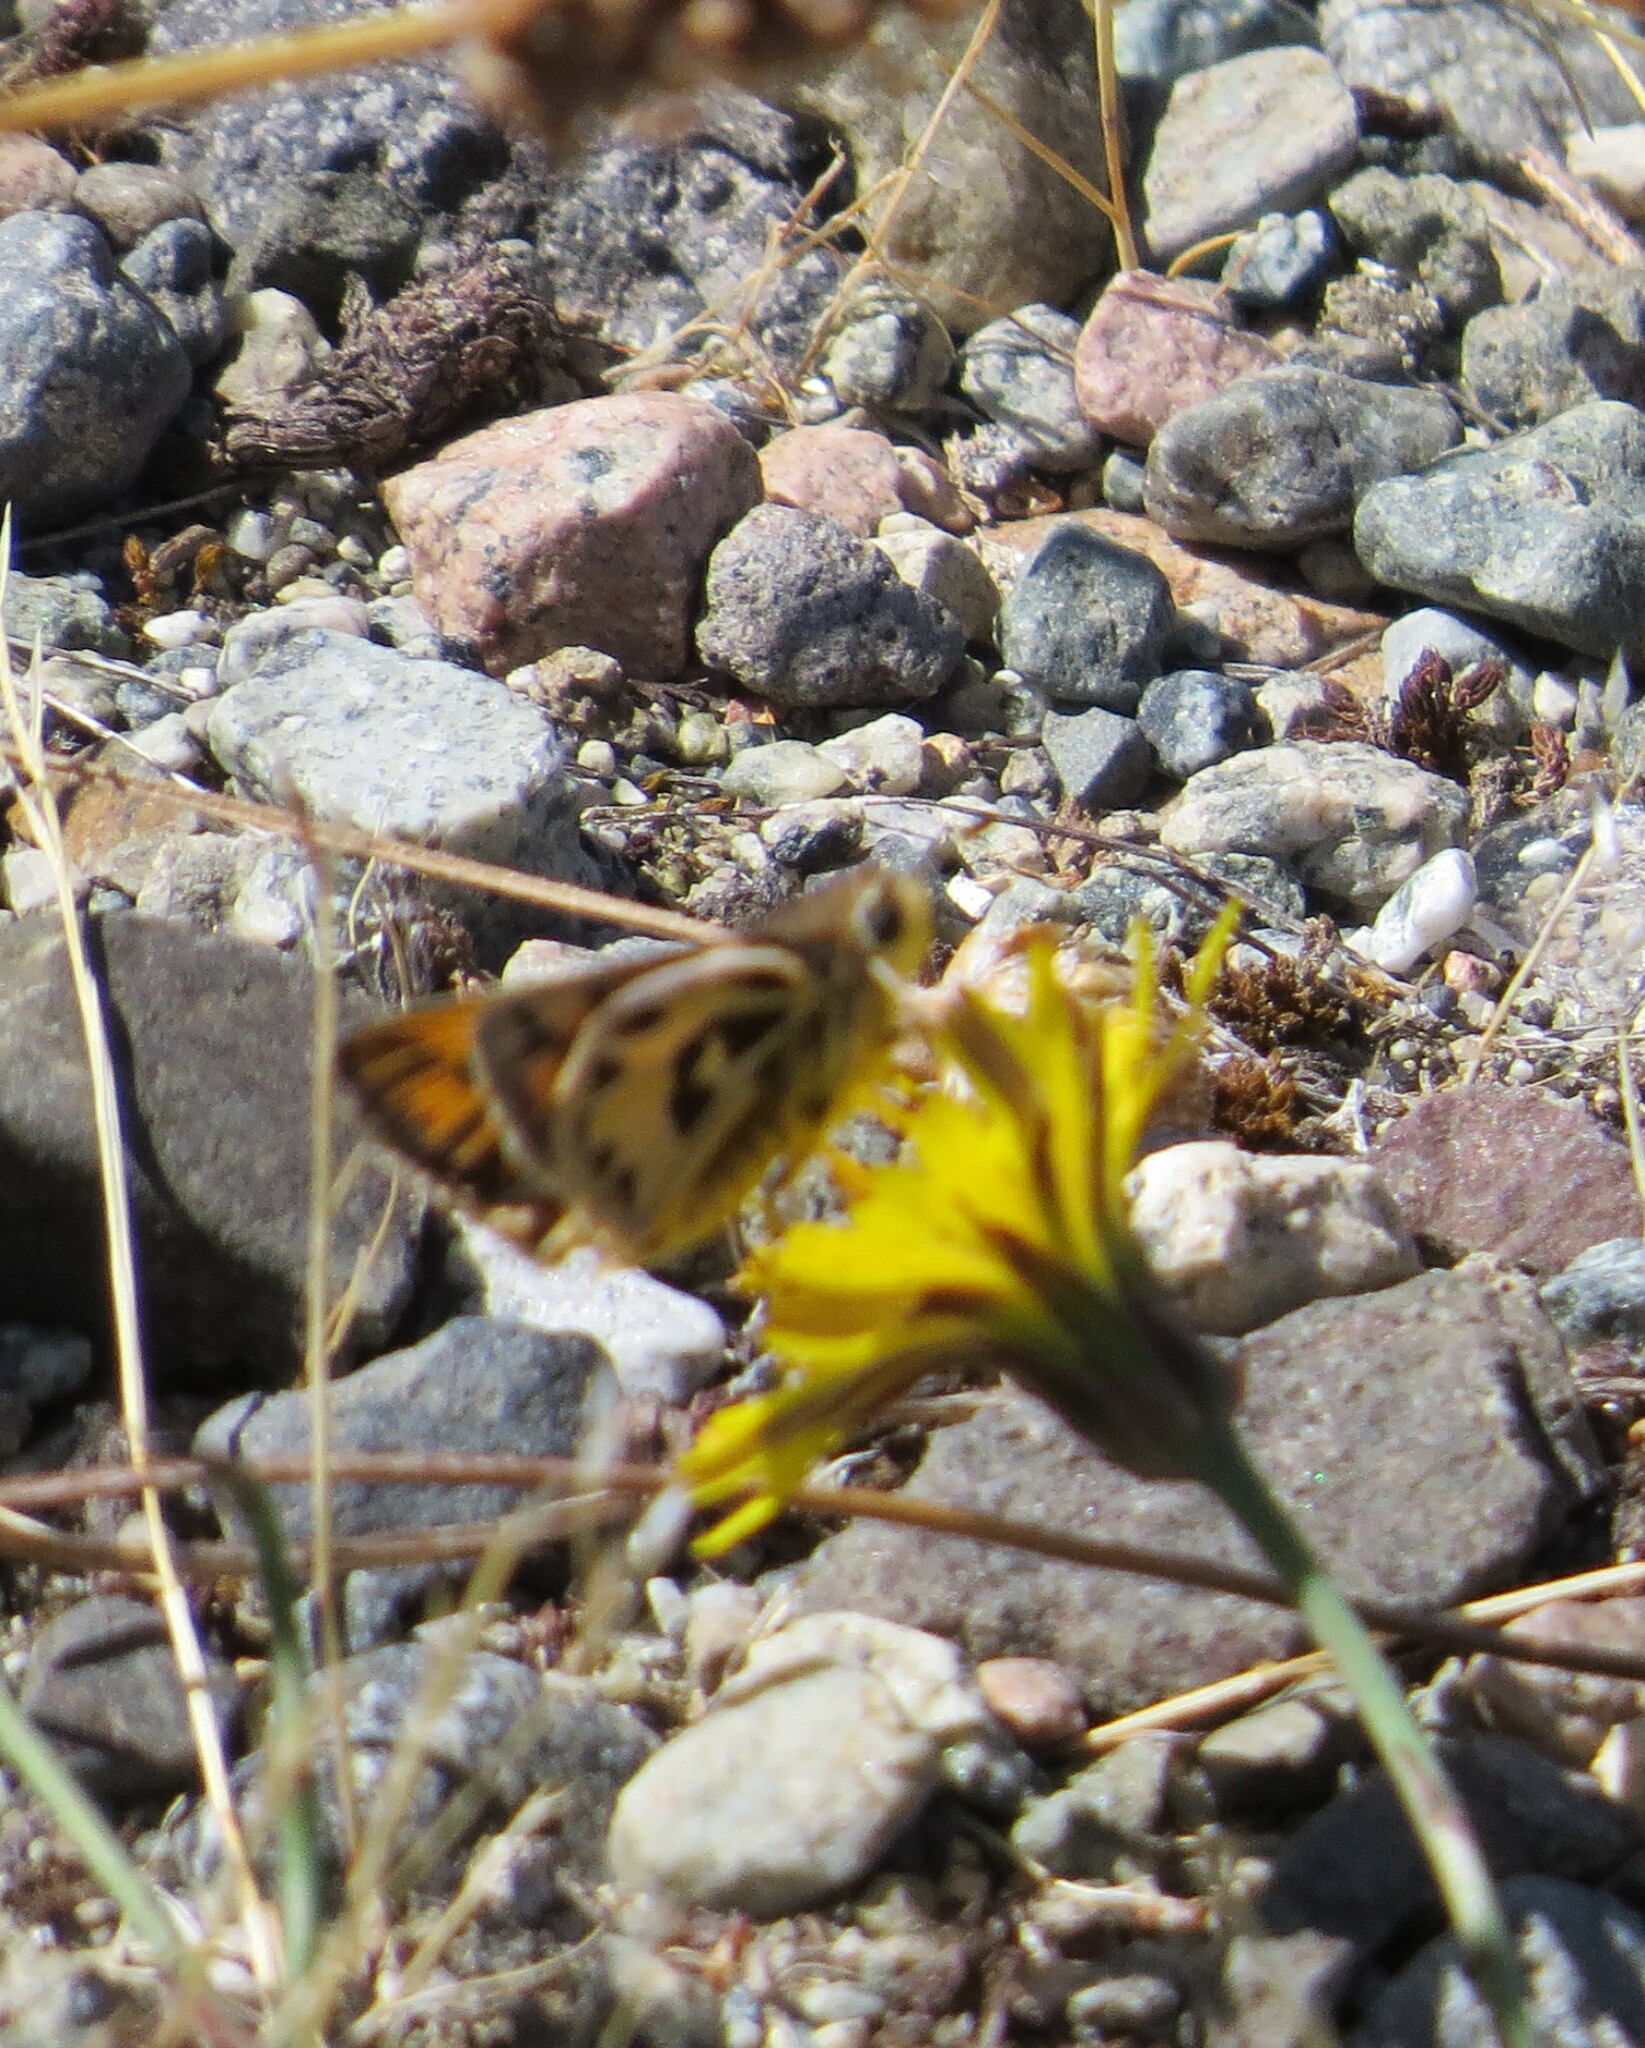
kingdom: Animalia
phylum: Arthropoda
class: Insecta
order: Lepidoptera
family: Hesperiidae
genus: Hylephila
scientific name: Hylephila fasciolata
